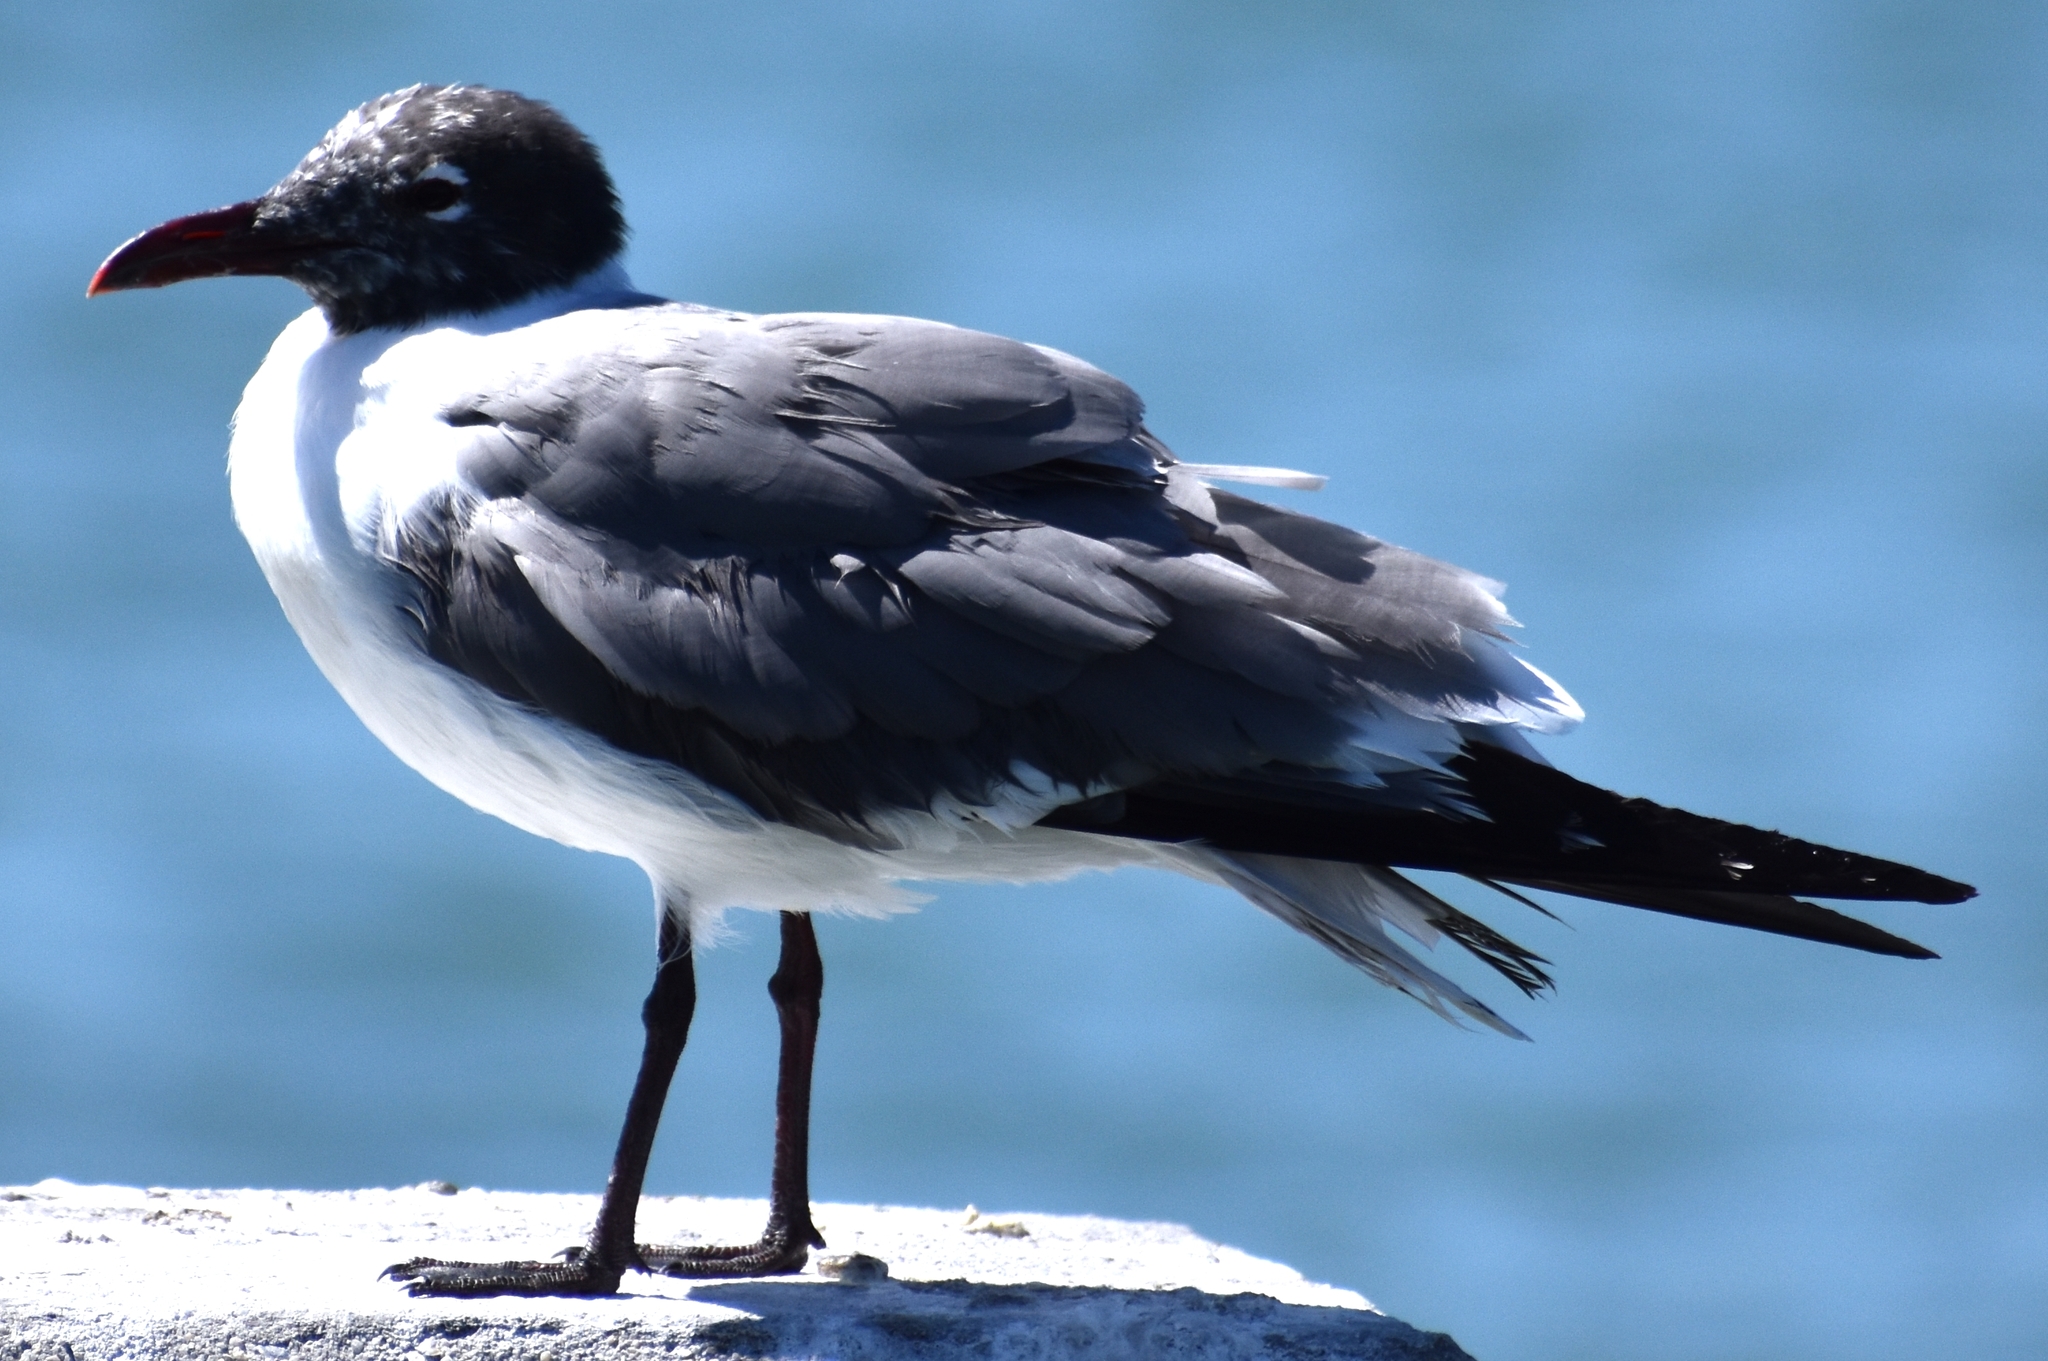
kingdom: Animalia
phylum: Chordata
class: Aves
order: Charadriiformes
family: Laridae
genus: Leucophaeus
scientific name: Leucophaeus atricilla
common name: Laughing gull
